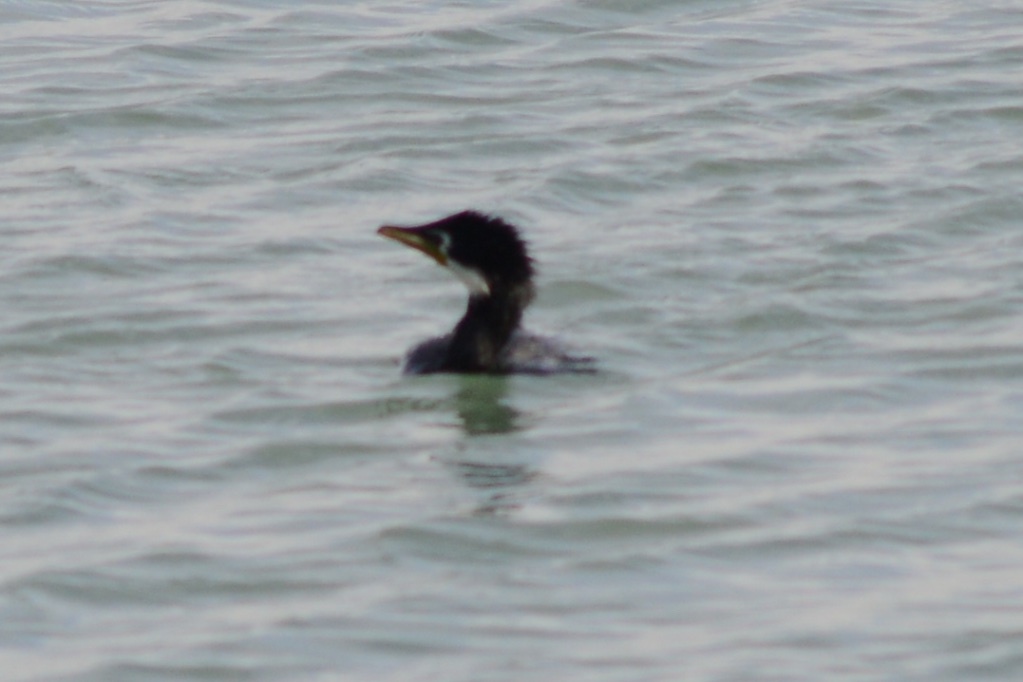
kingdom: Animalia
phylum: Chordata
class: Aves
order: Suliformes
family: Phalacrocoracidae
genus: Microcarbo
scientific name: Microcarbo melanoleucos
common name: Little pied cormorant
